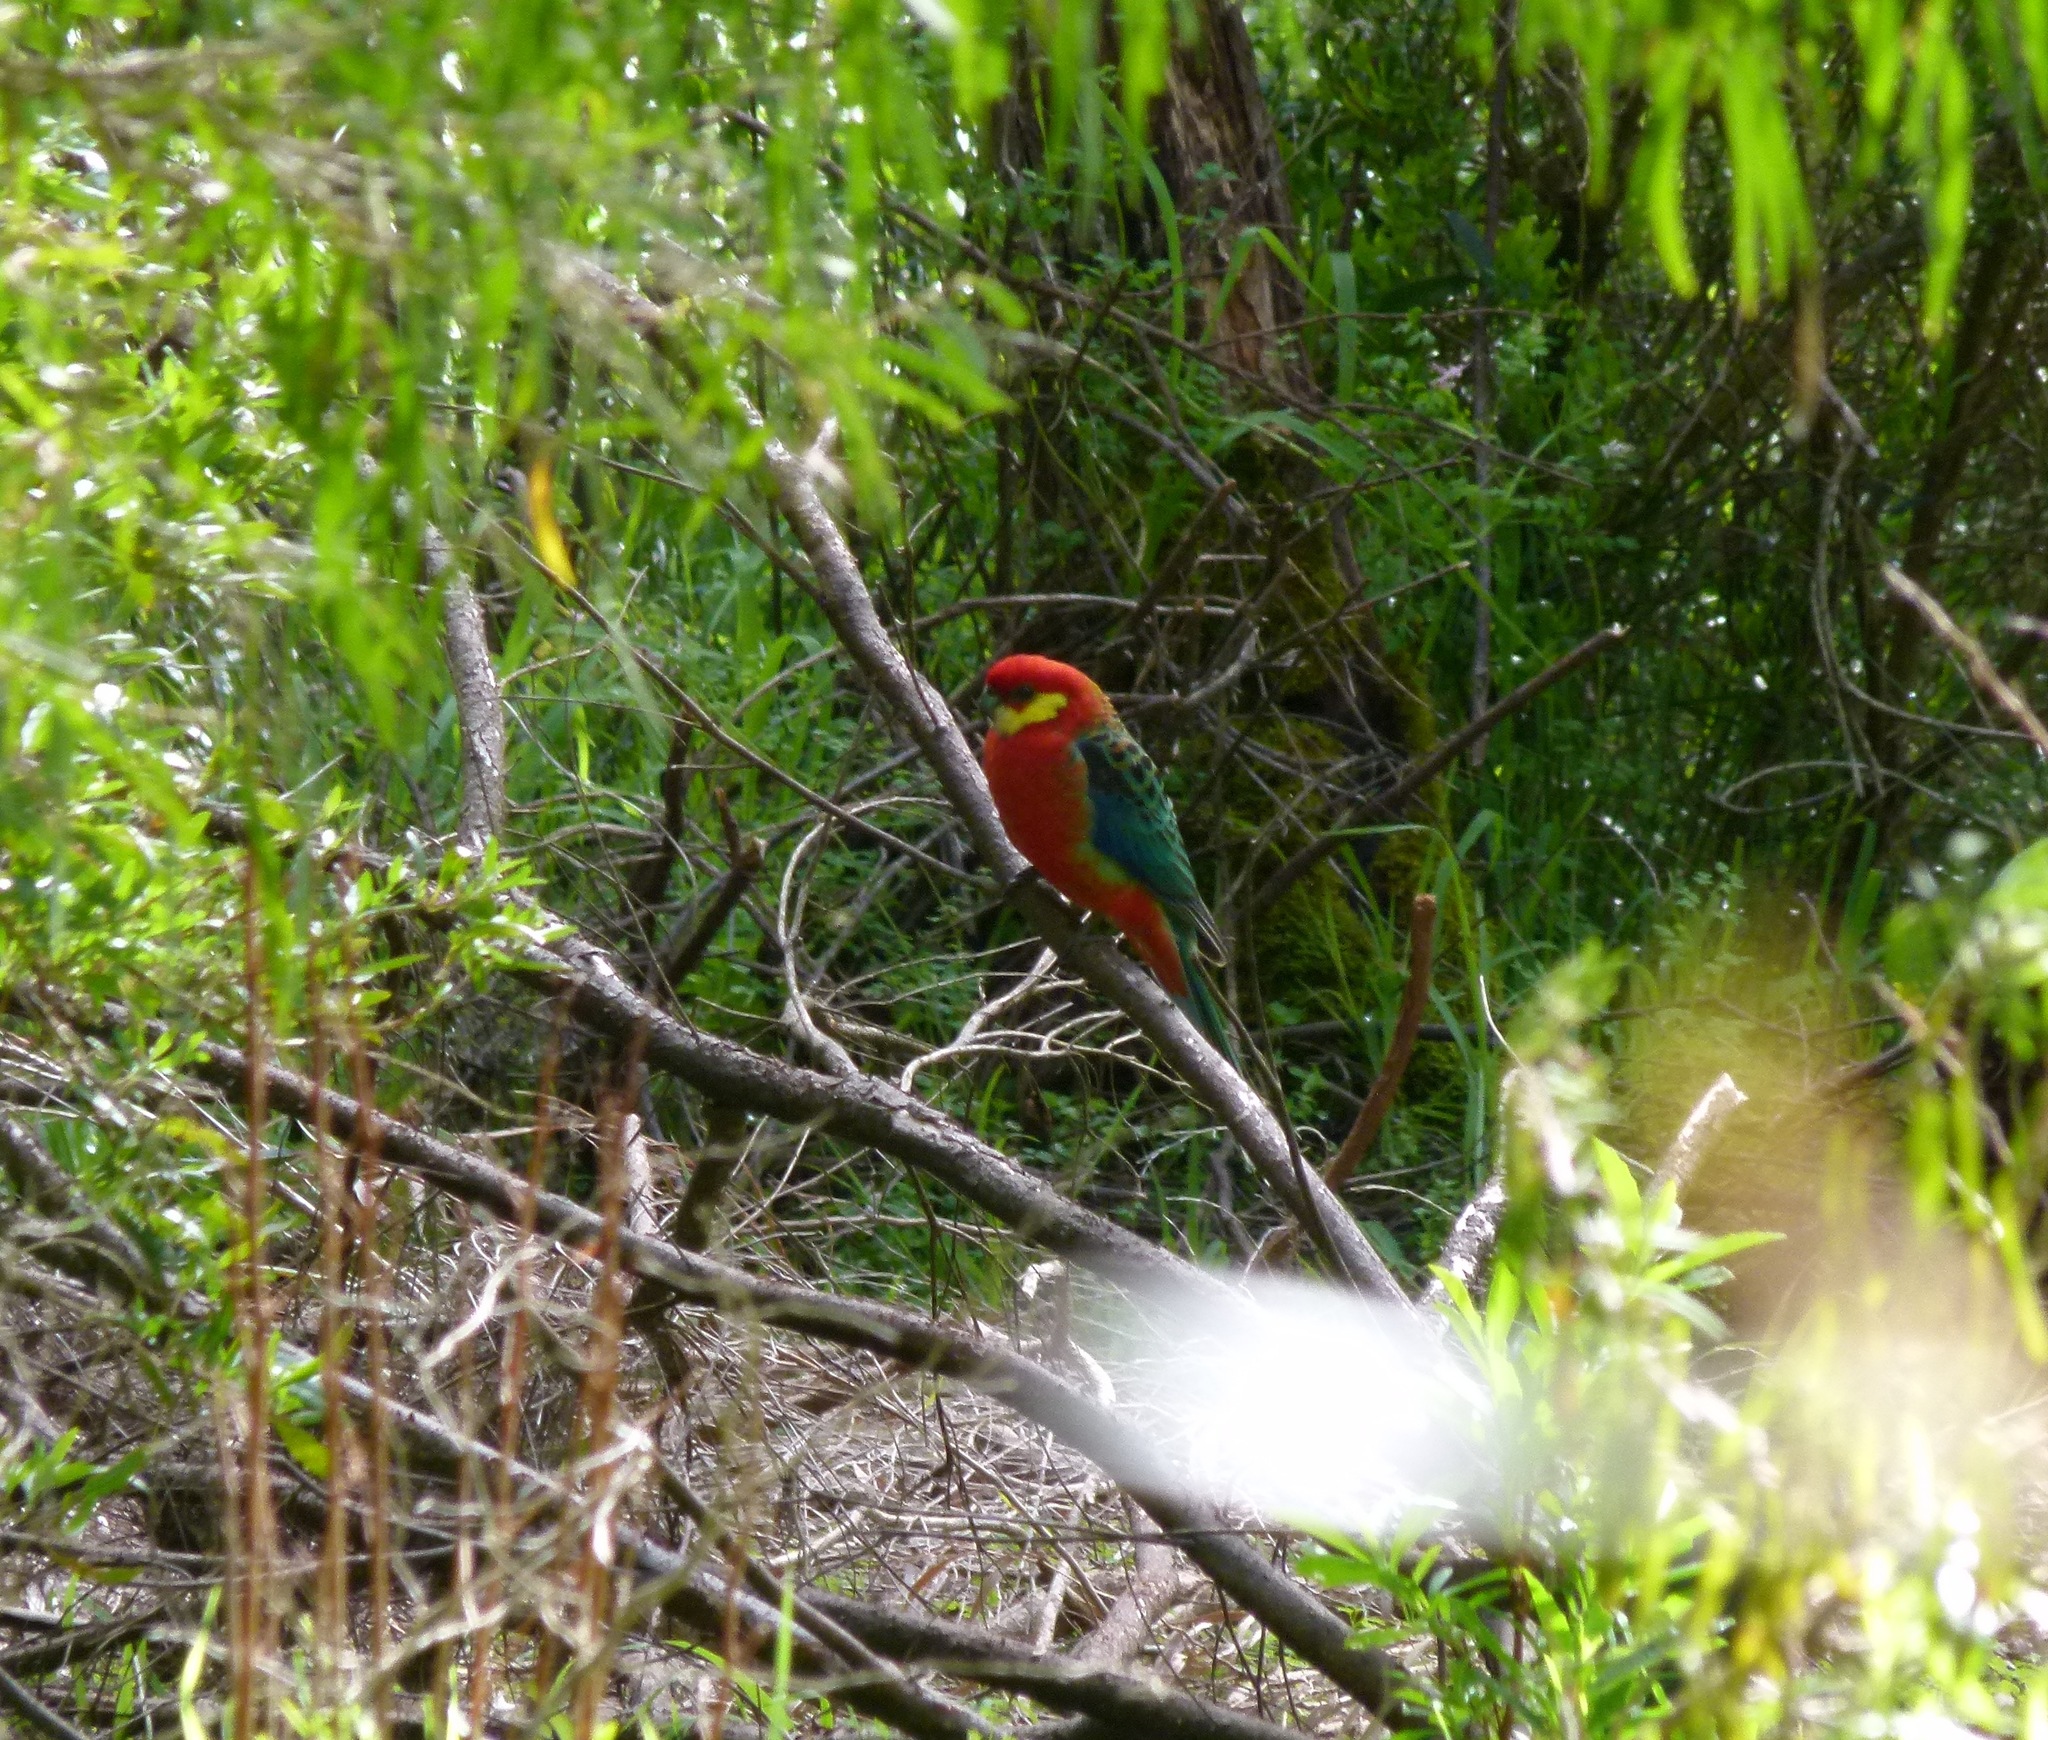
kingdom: Animalia
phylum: Chordata
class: Aves
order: Psittaciformes
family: Psittacidae
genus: Platycercus
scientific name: Platycercus icterotis
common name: Western rosella
